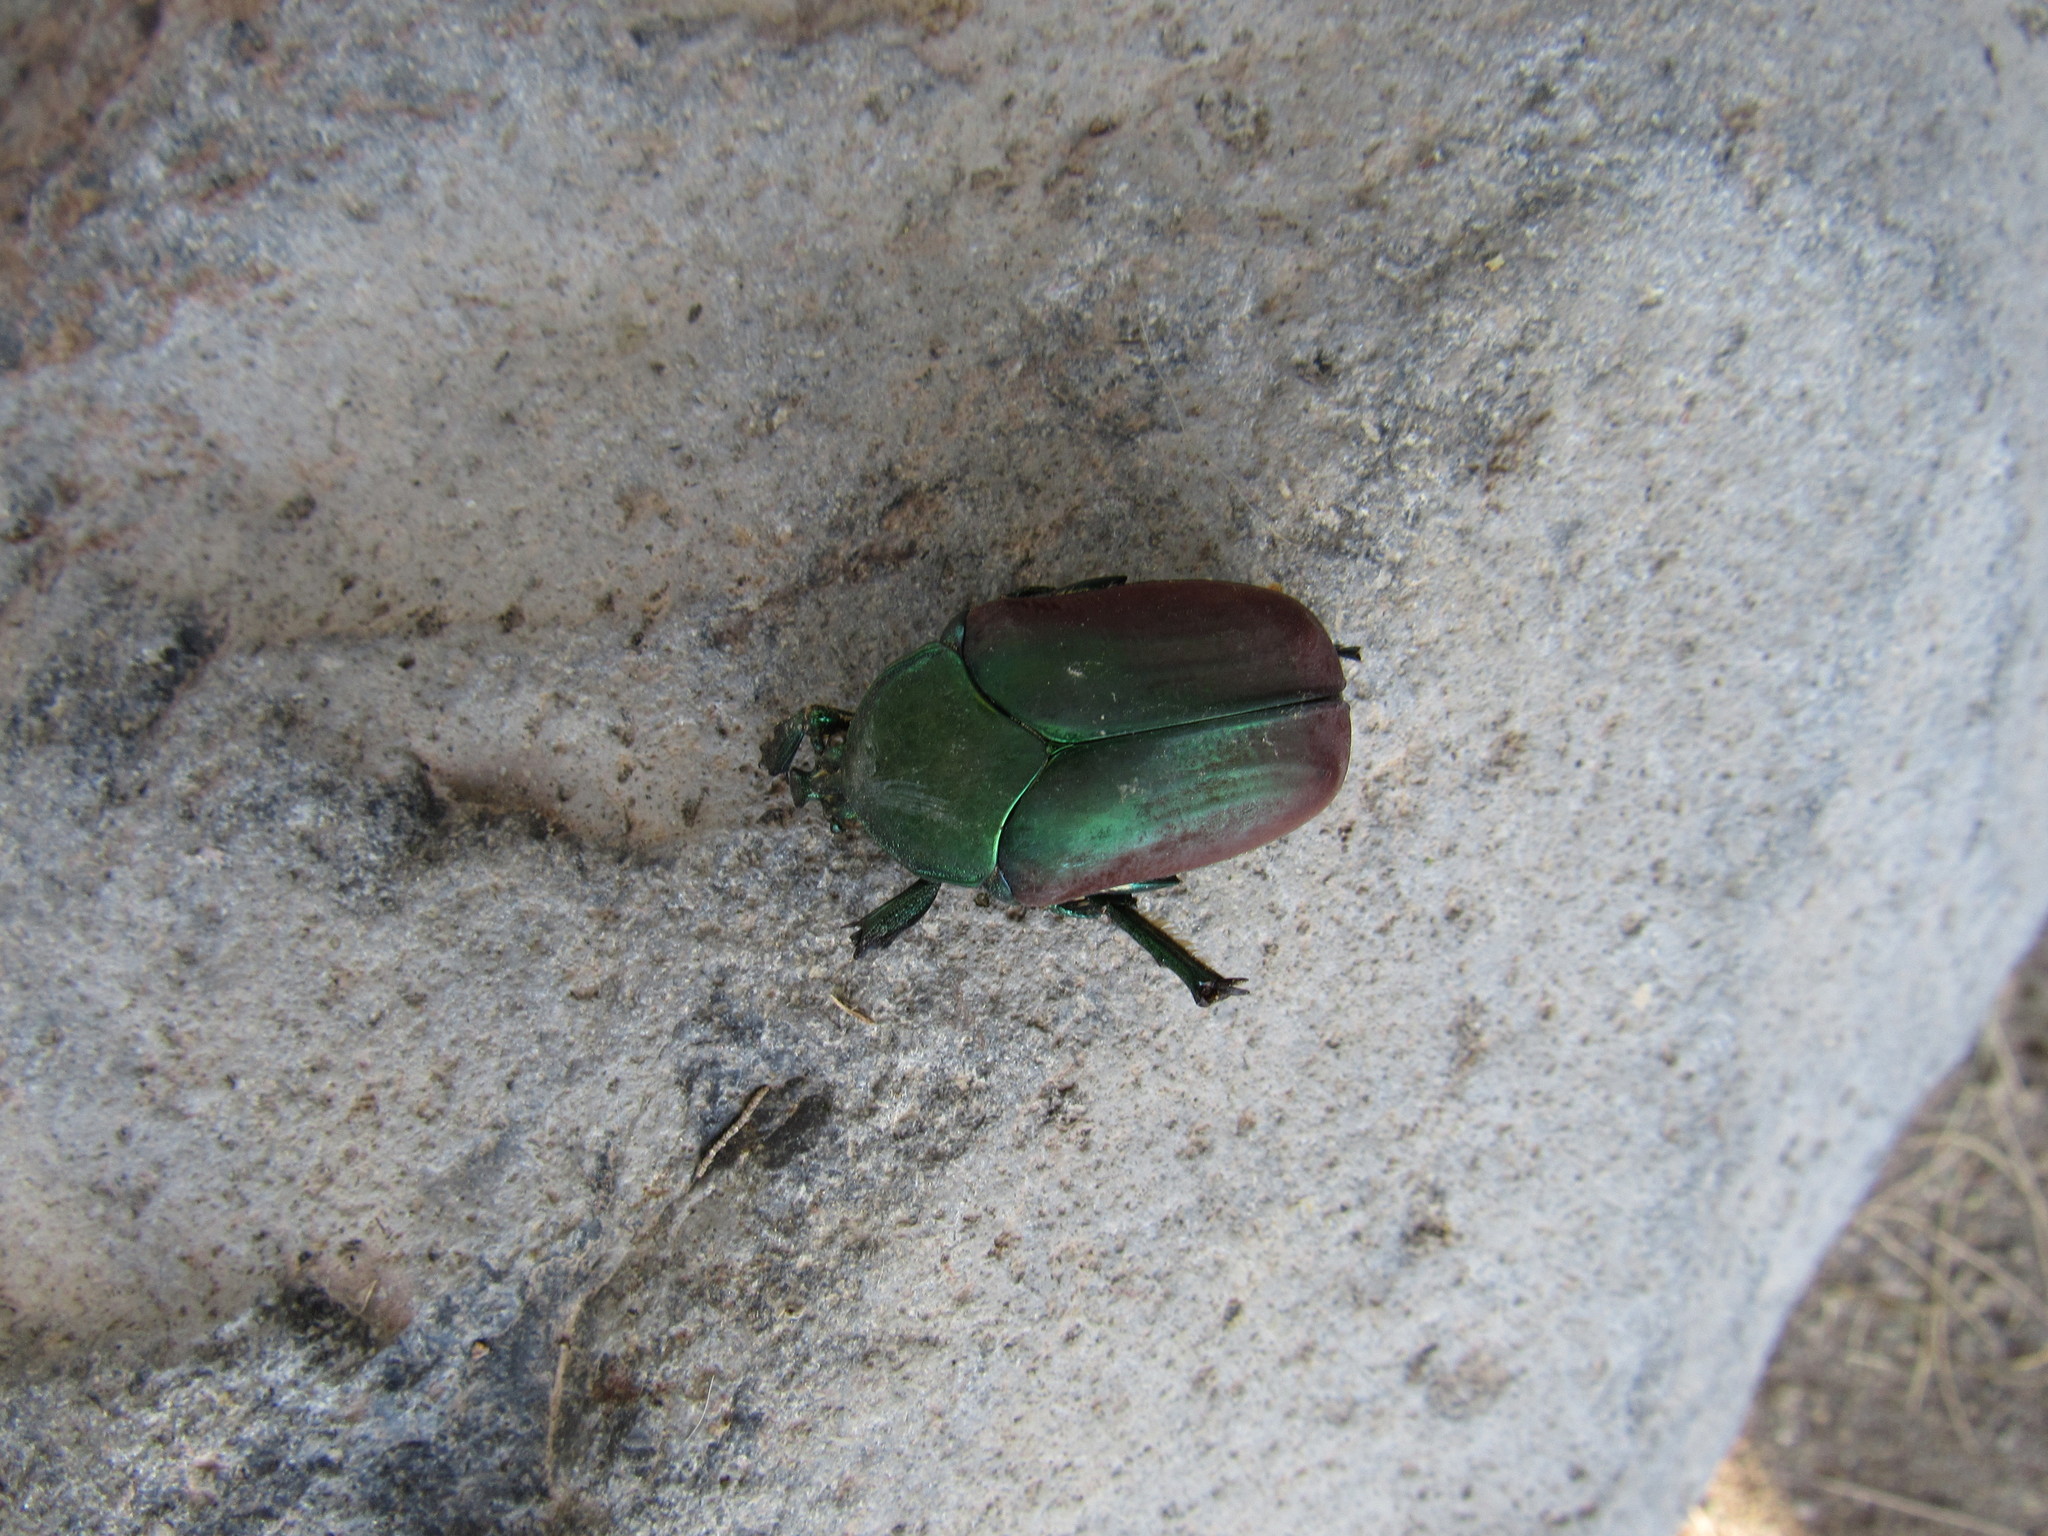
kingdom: Animalia
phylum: Arthropoda
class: Insecta
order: Coleoptera
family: Scarabaeidae
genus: Cotinis
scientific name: Cotinis laticornis
